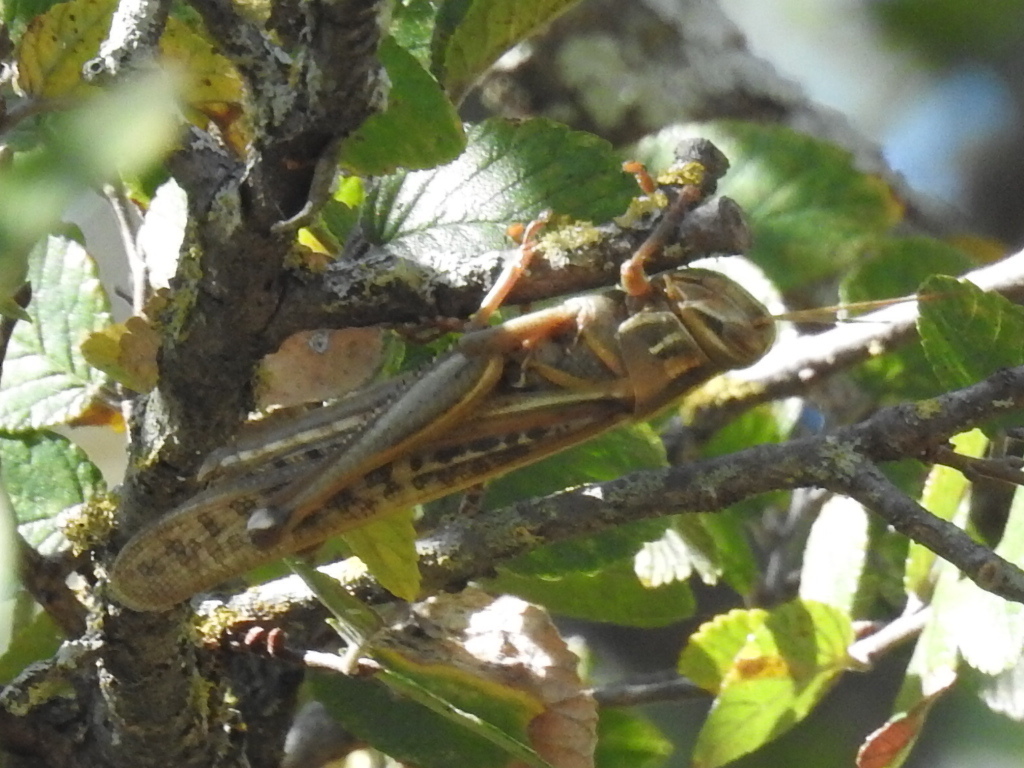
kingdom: Animalia
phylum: Arthropoda
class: Insecta
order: Orthoptera
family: Acrididae
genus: Schistocerca
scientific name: Schistocerca americana
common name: American bird locust
